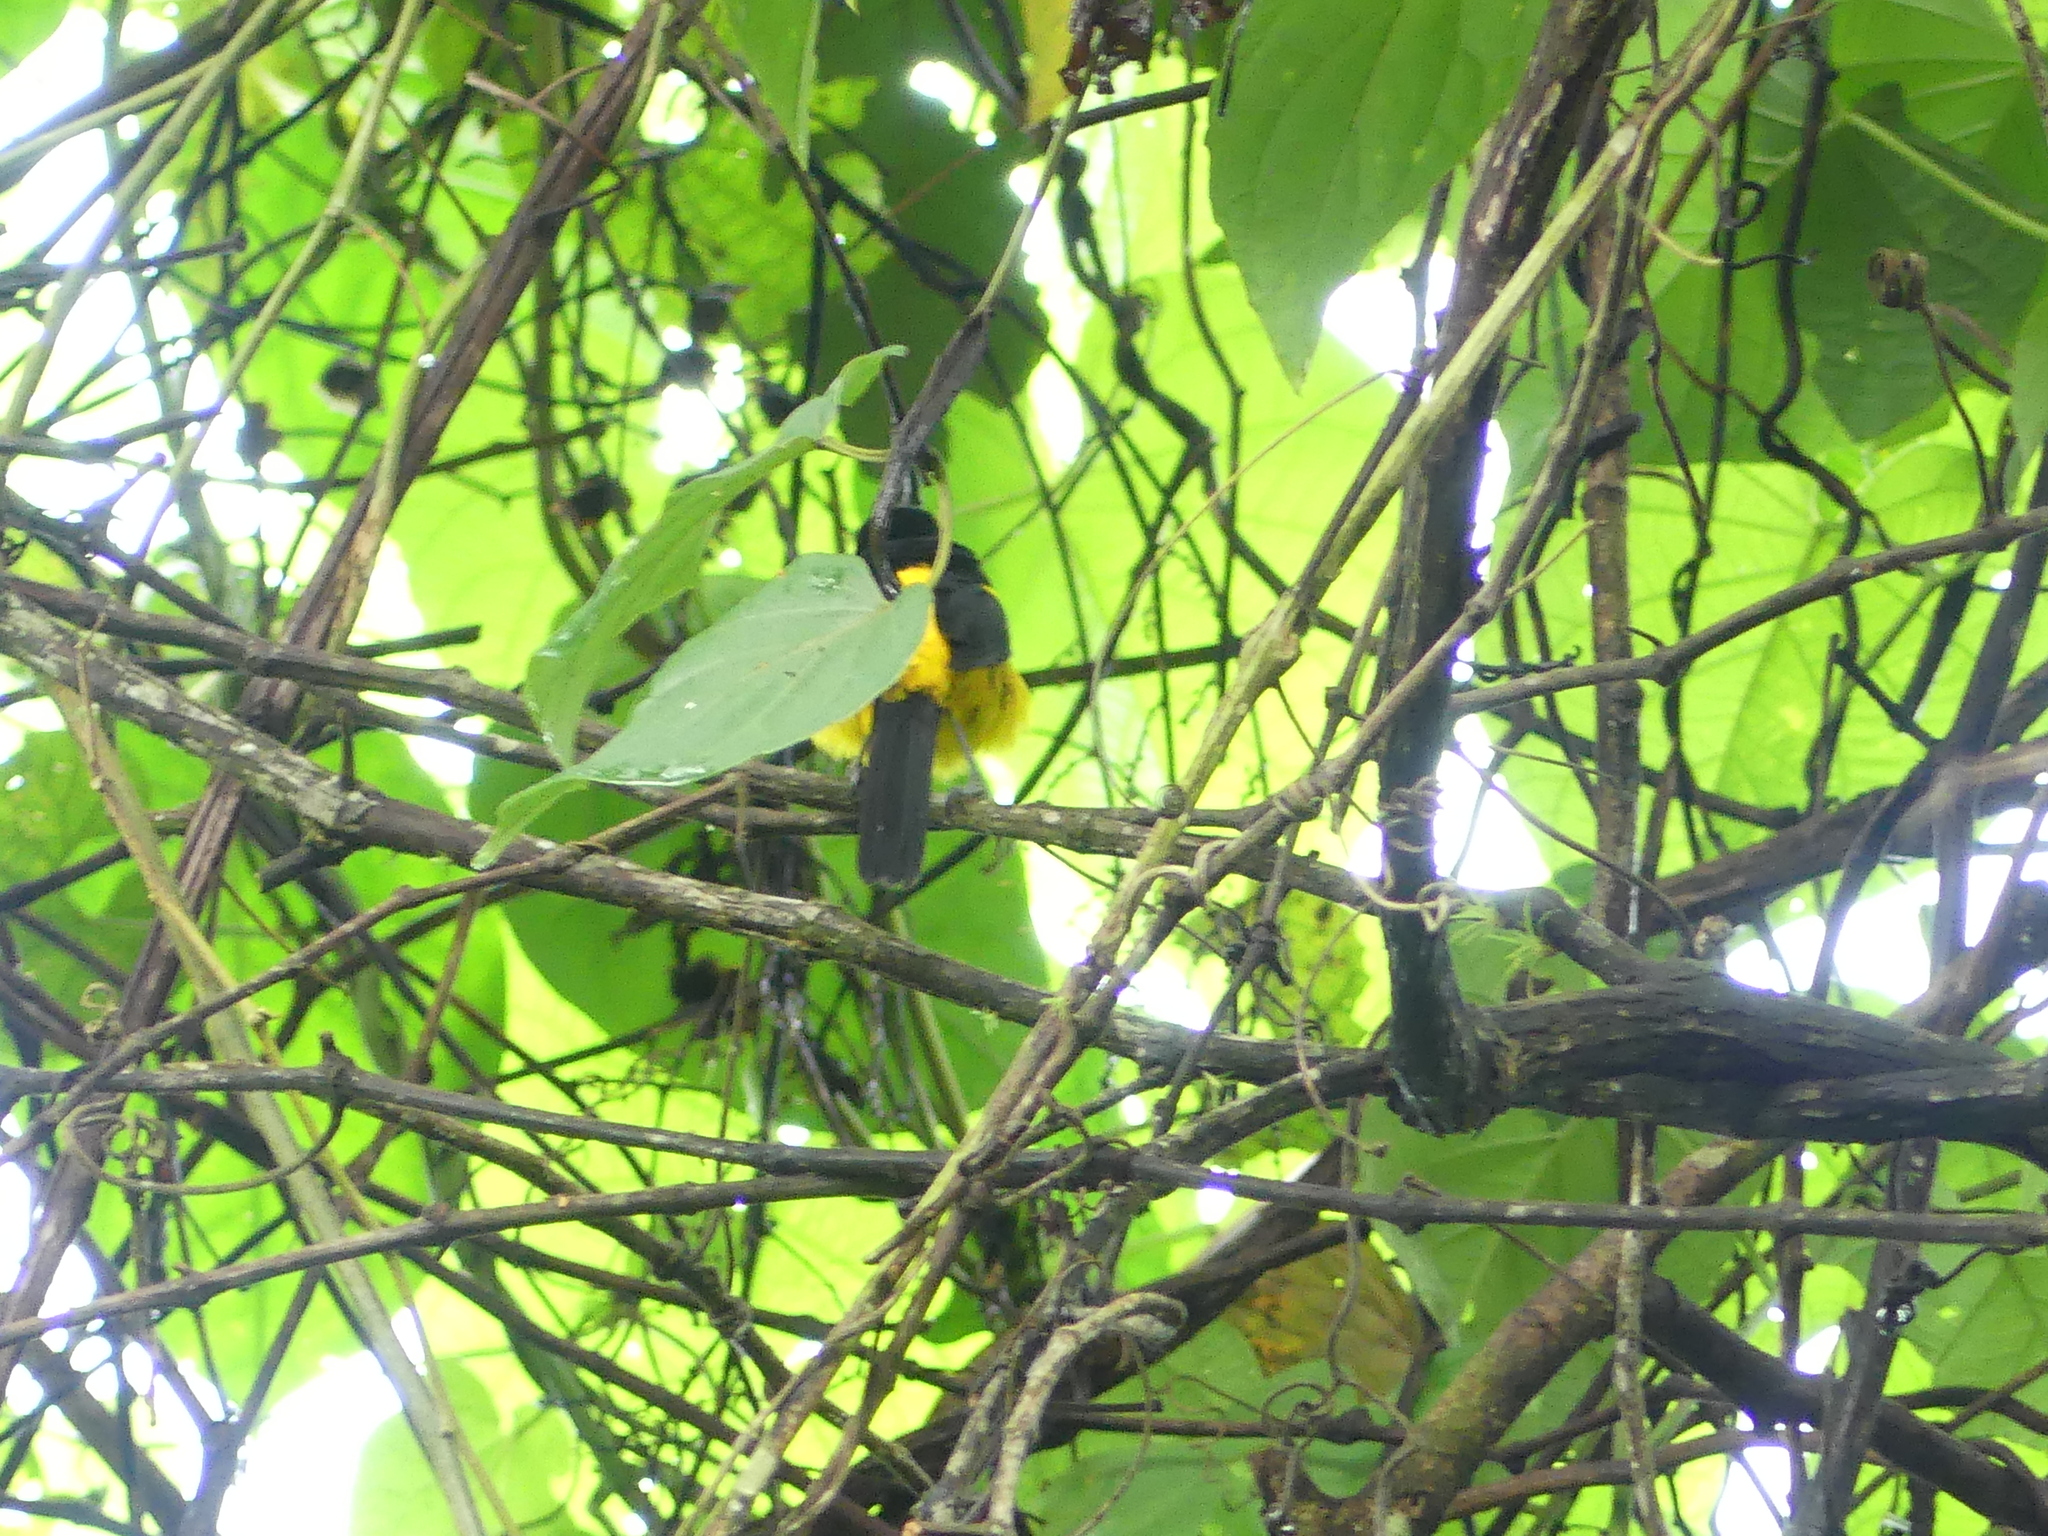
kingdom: Animalia
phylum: Chordata
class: Aves
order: Passeriformes
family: Icteridae
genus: Icterus
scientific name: Icterus prosthemelas
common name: Black-cowled oriole
